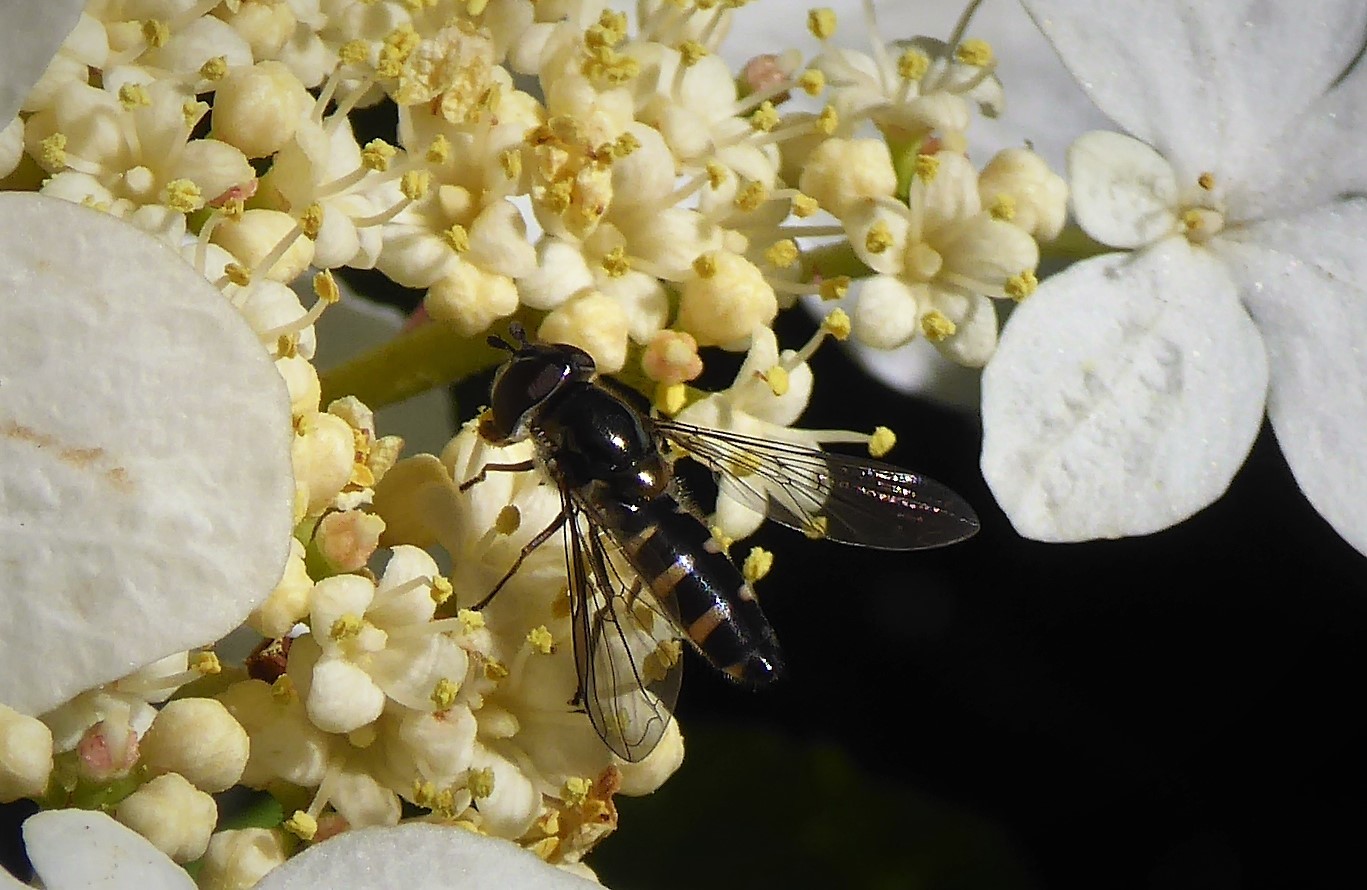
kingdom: Animalia
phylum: Arthropoda
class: Insecta
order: Diptera
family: Syrphidae
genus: Melangyna
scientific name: Melangyna novaezelandiae
